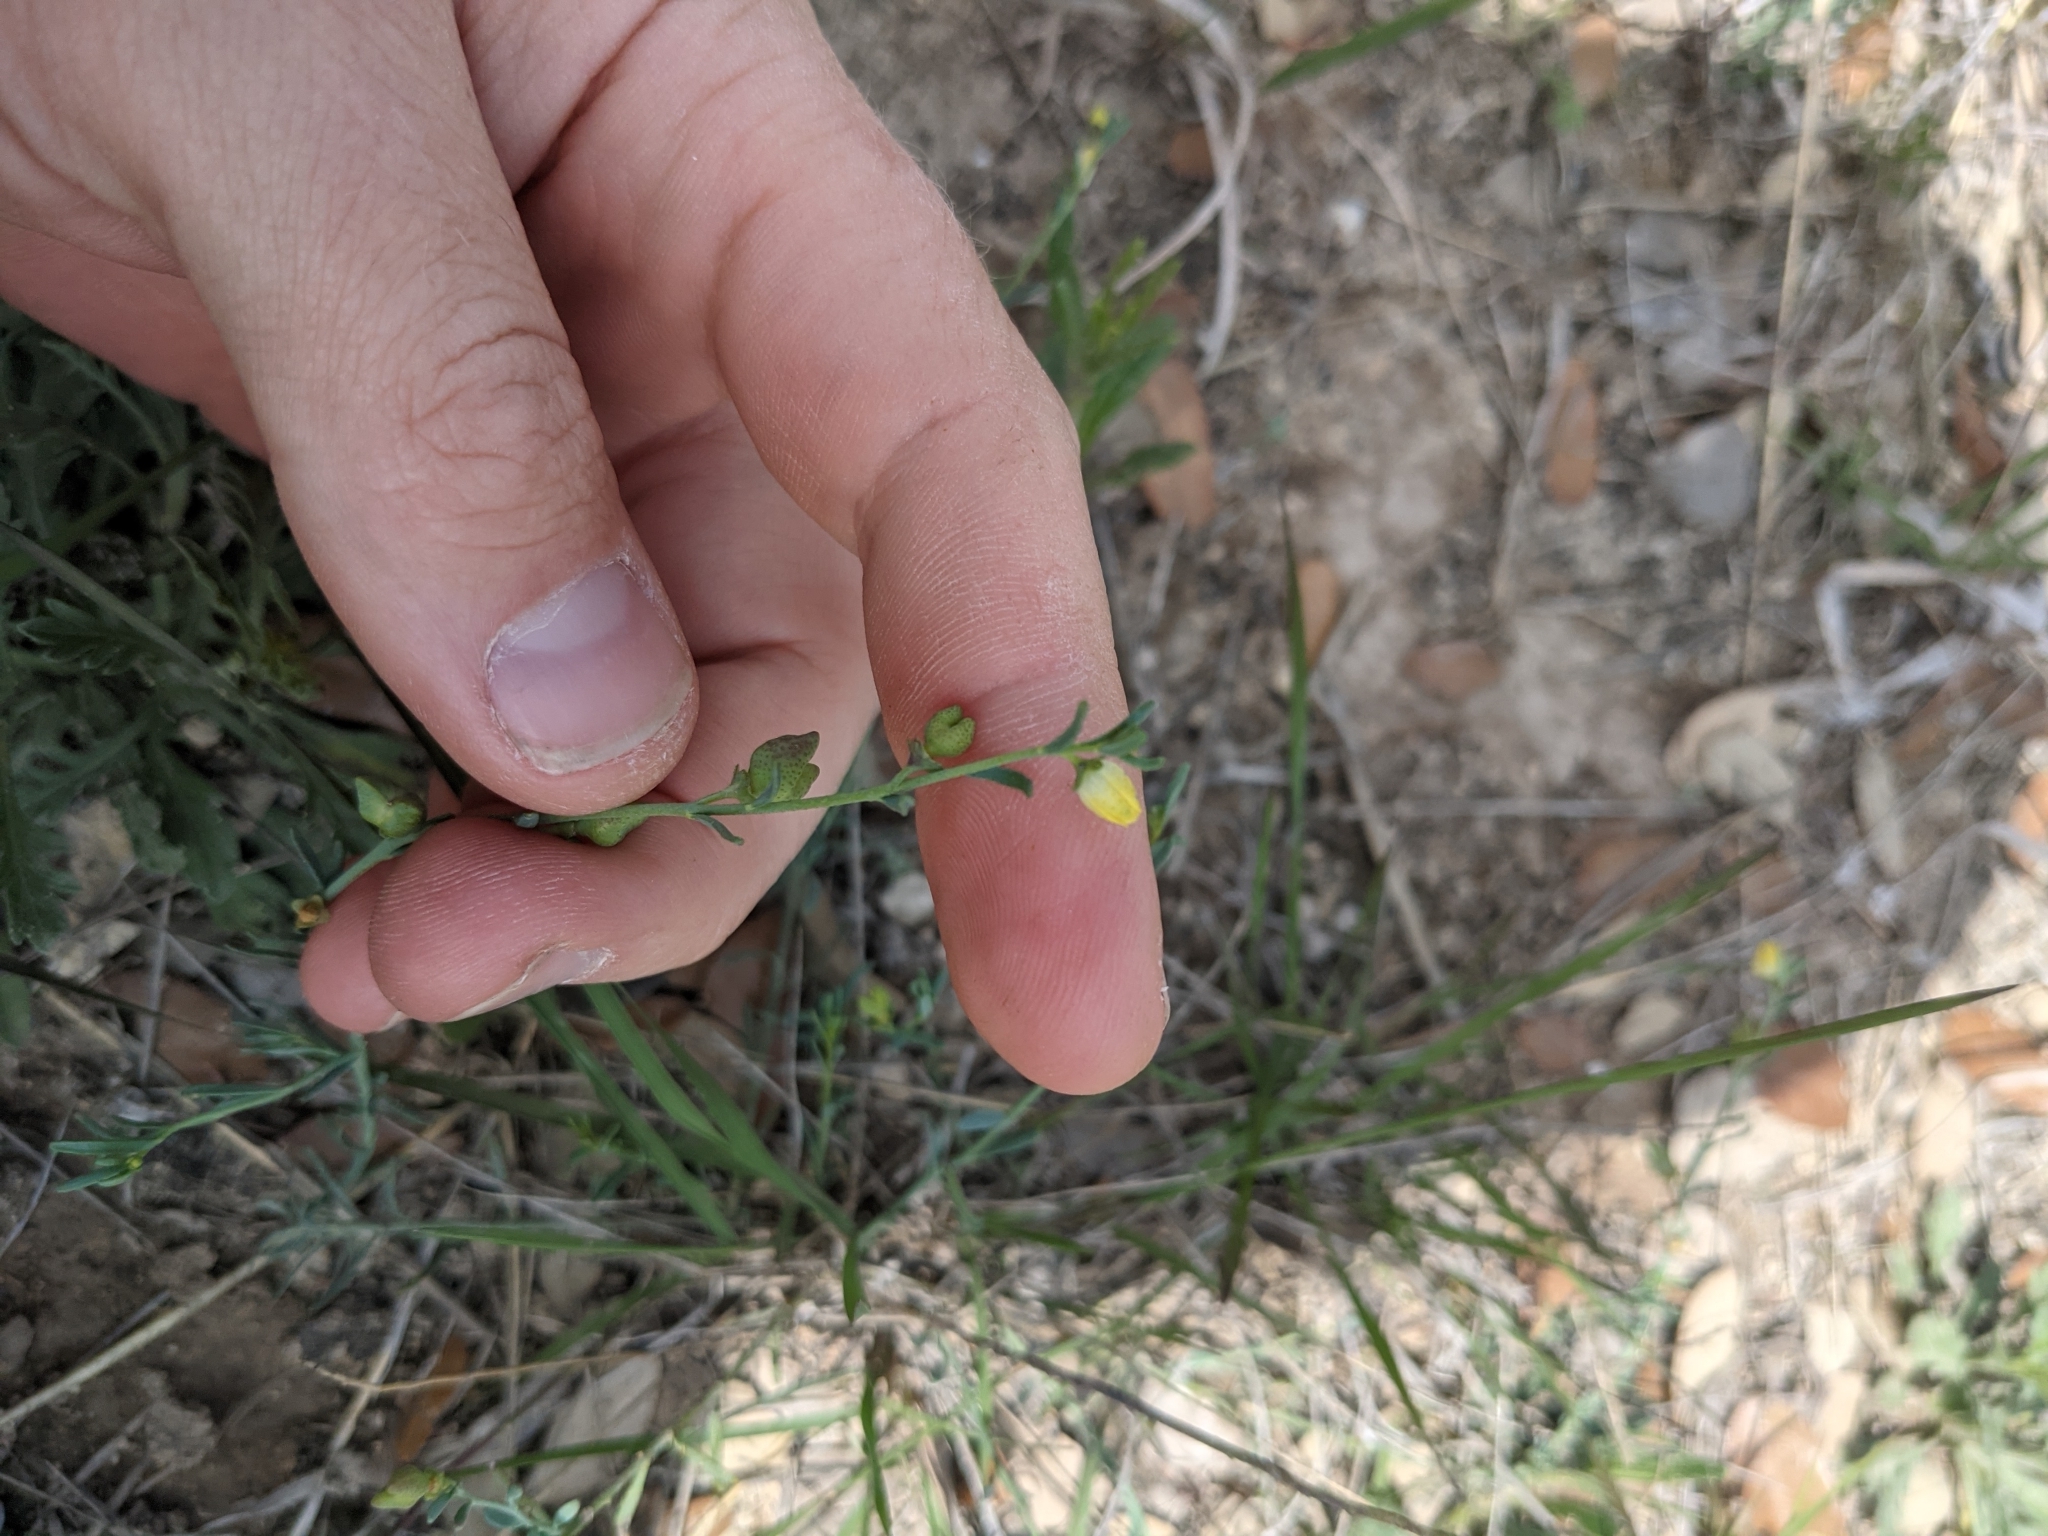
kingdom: Plantae
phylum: Tracheophyta
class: Magnoliopsida
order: Sapindales
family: Rutaceae
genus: Thamnosma
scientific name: Thamnosma texana
